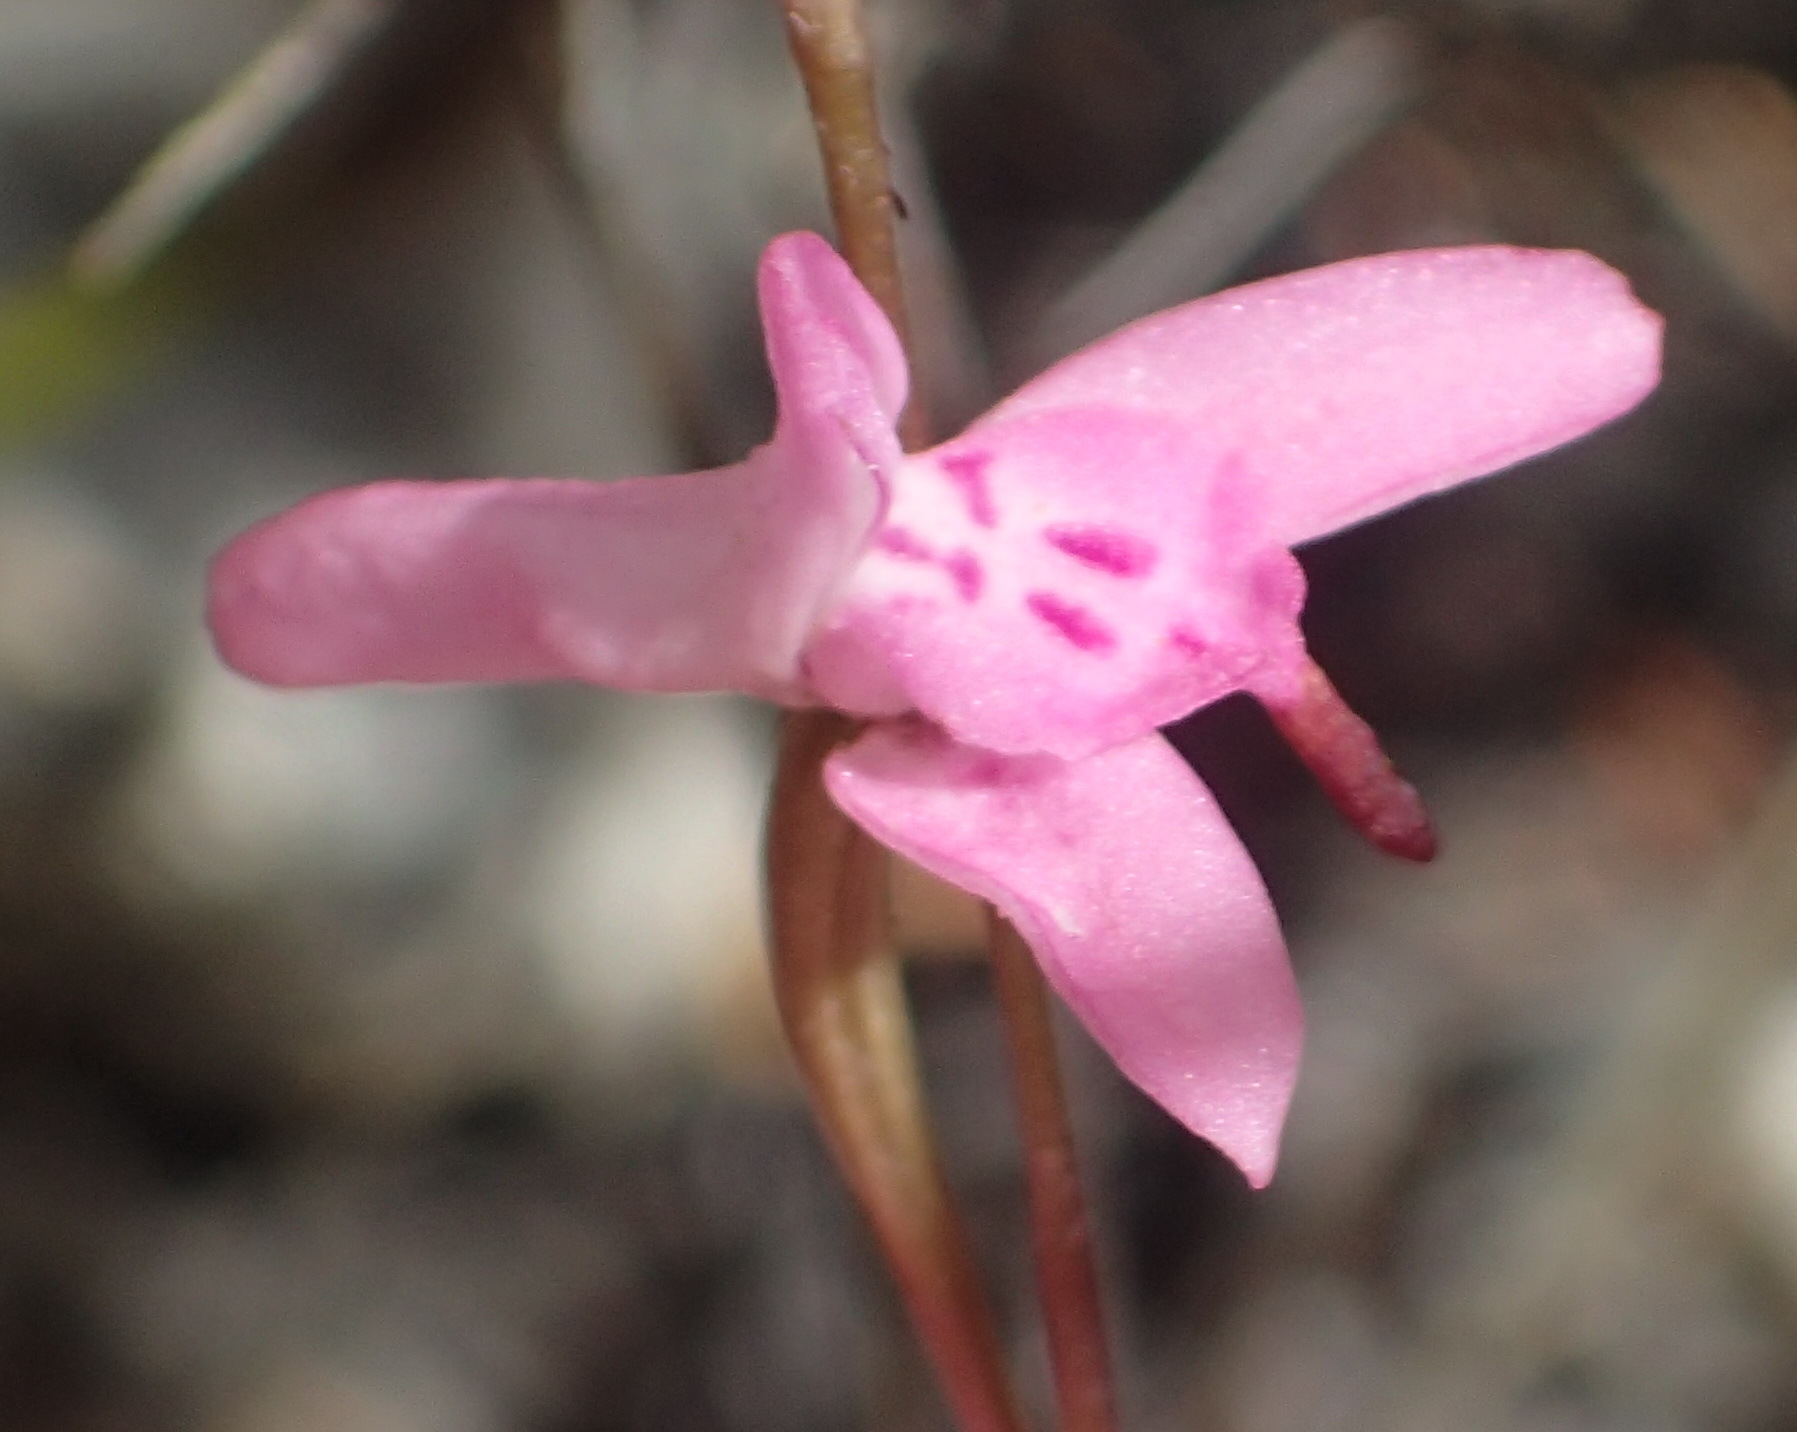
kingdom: Plantae
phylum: Tracheophyta
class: Liliopsida
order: Asparagales
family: Orchidaceae
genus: Disa
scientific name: Disa inflexa
